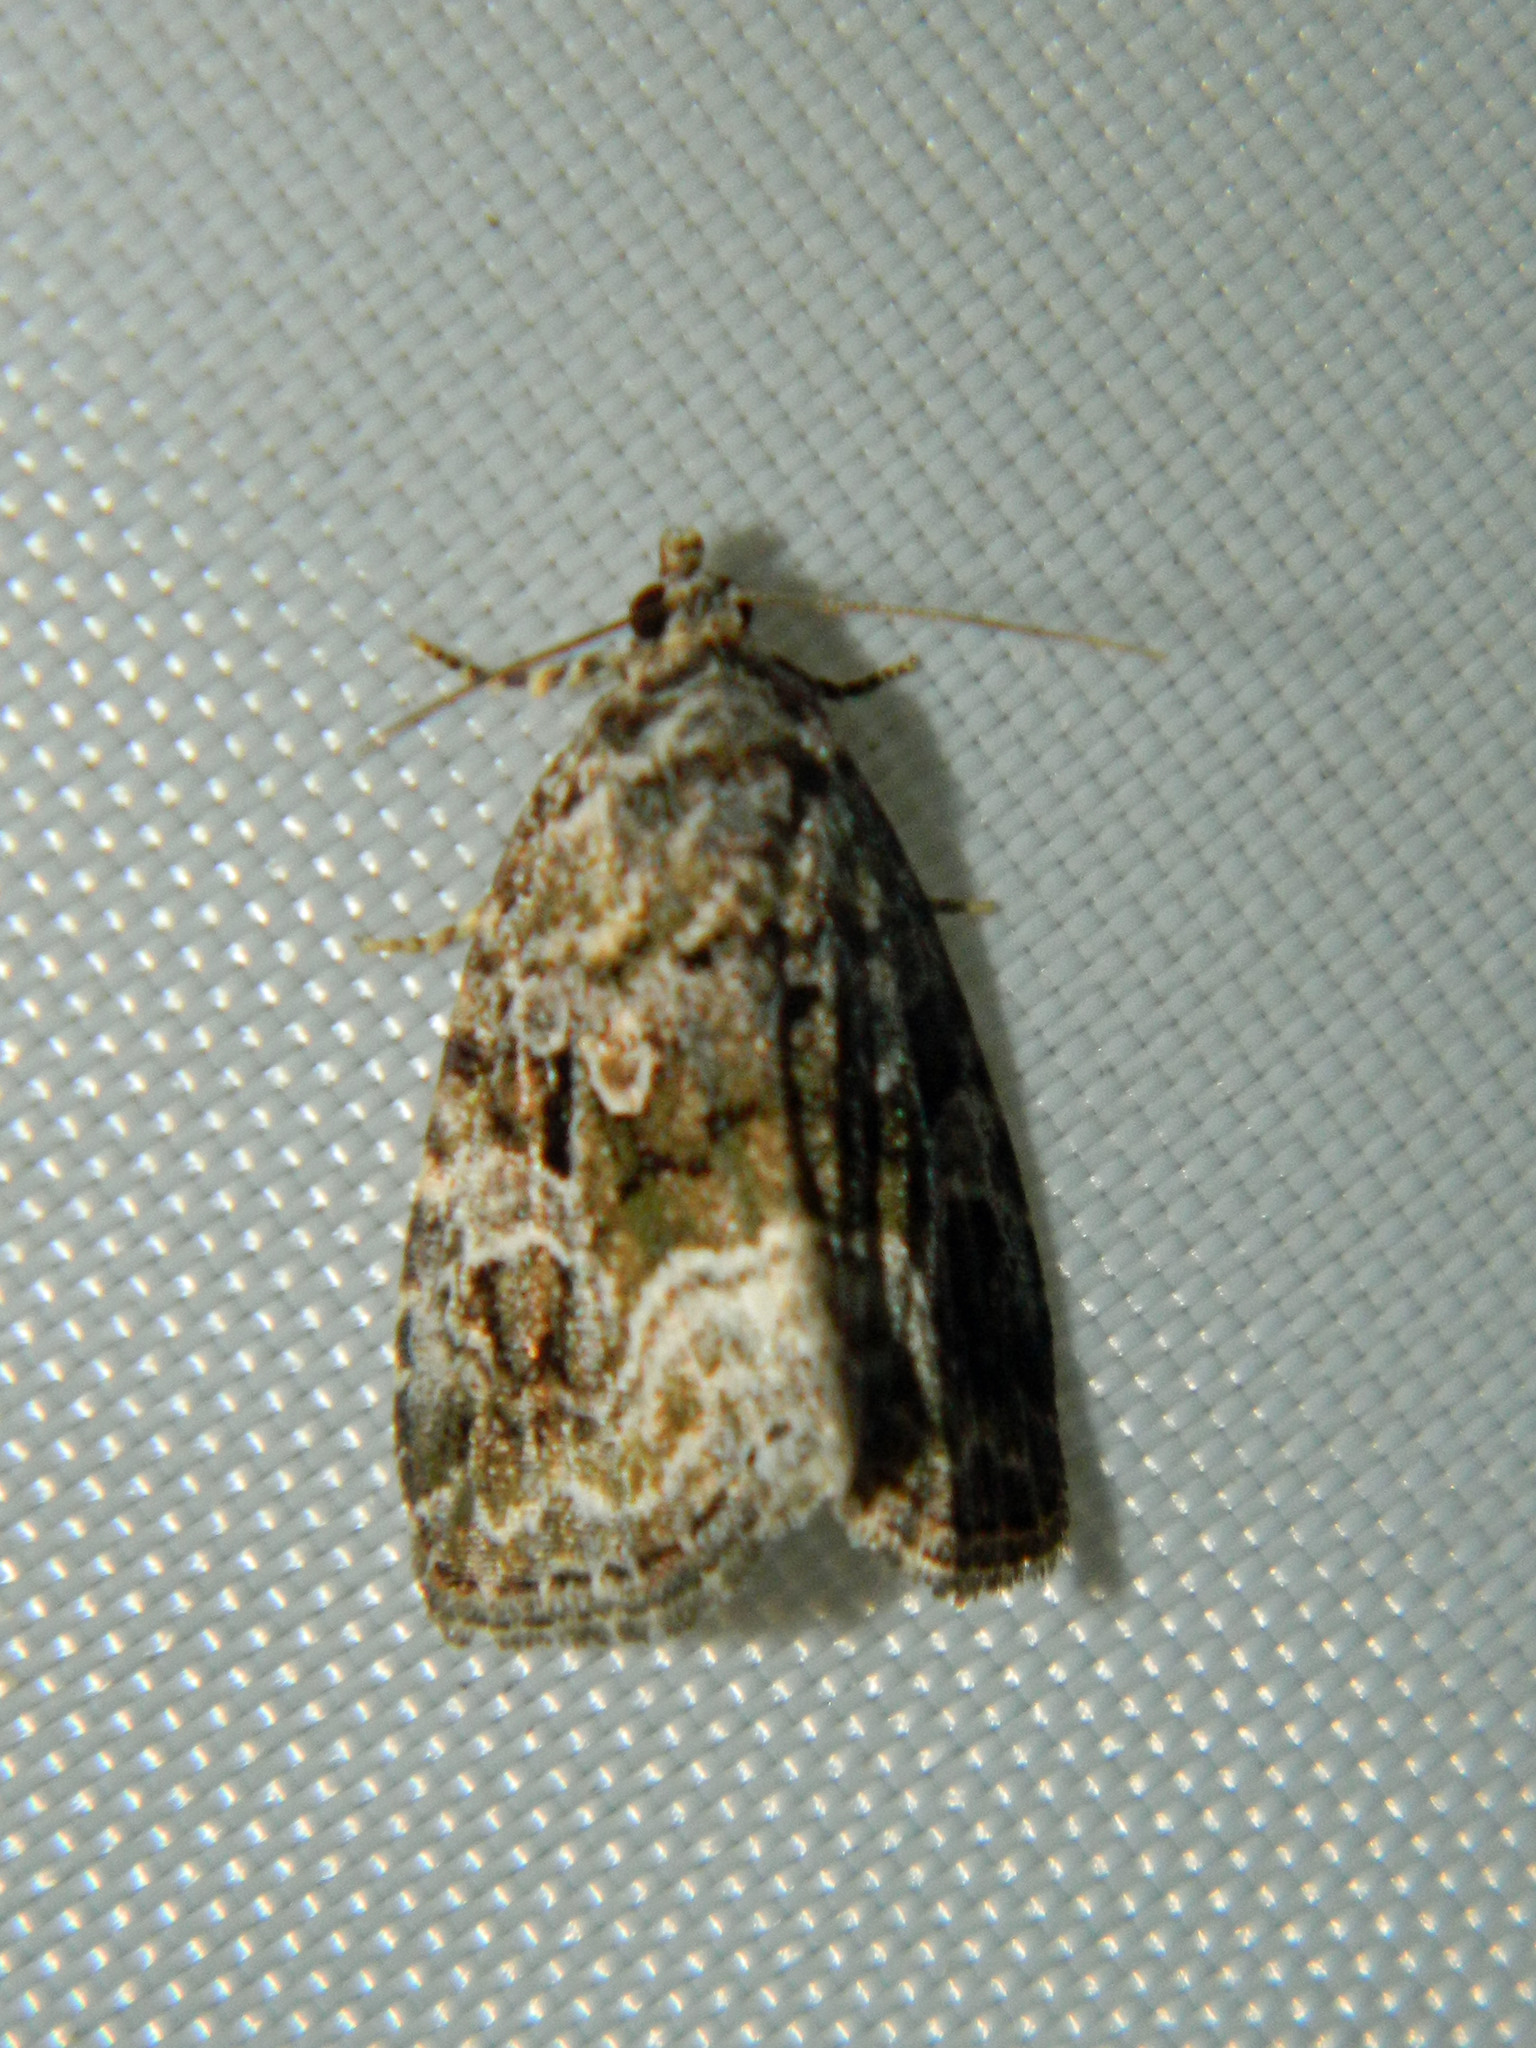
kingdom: Animalia
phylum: Arthropoda
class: Insecta
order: Lepidoptera
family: Noctuidae
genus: Protodeltote
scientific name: Protodeltote muscosula
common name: Large mossy glyph
